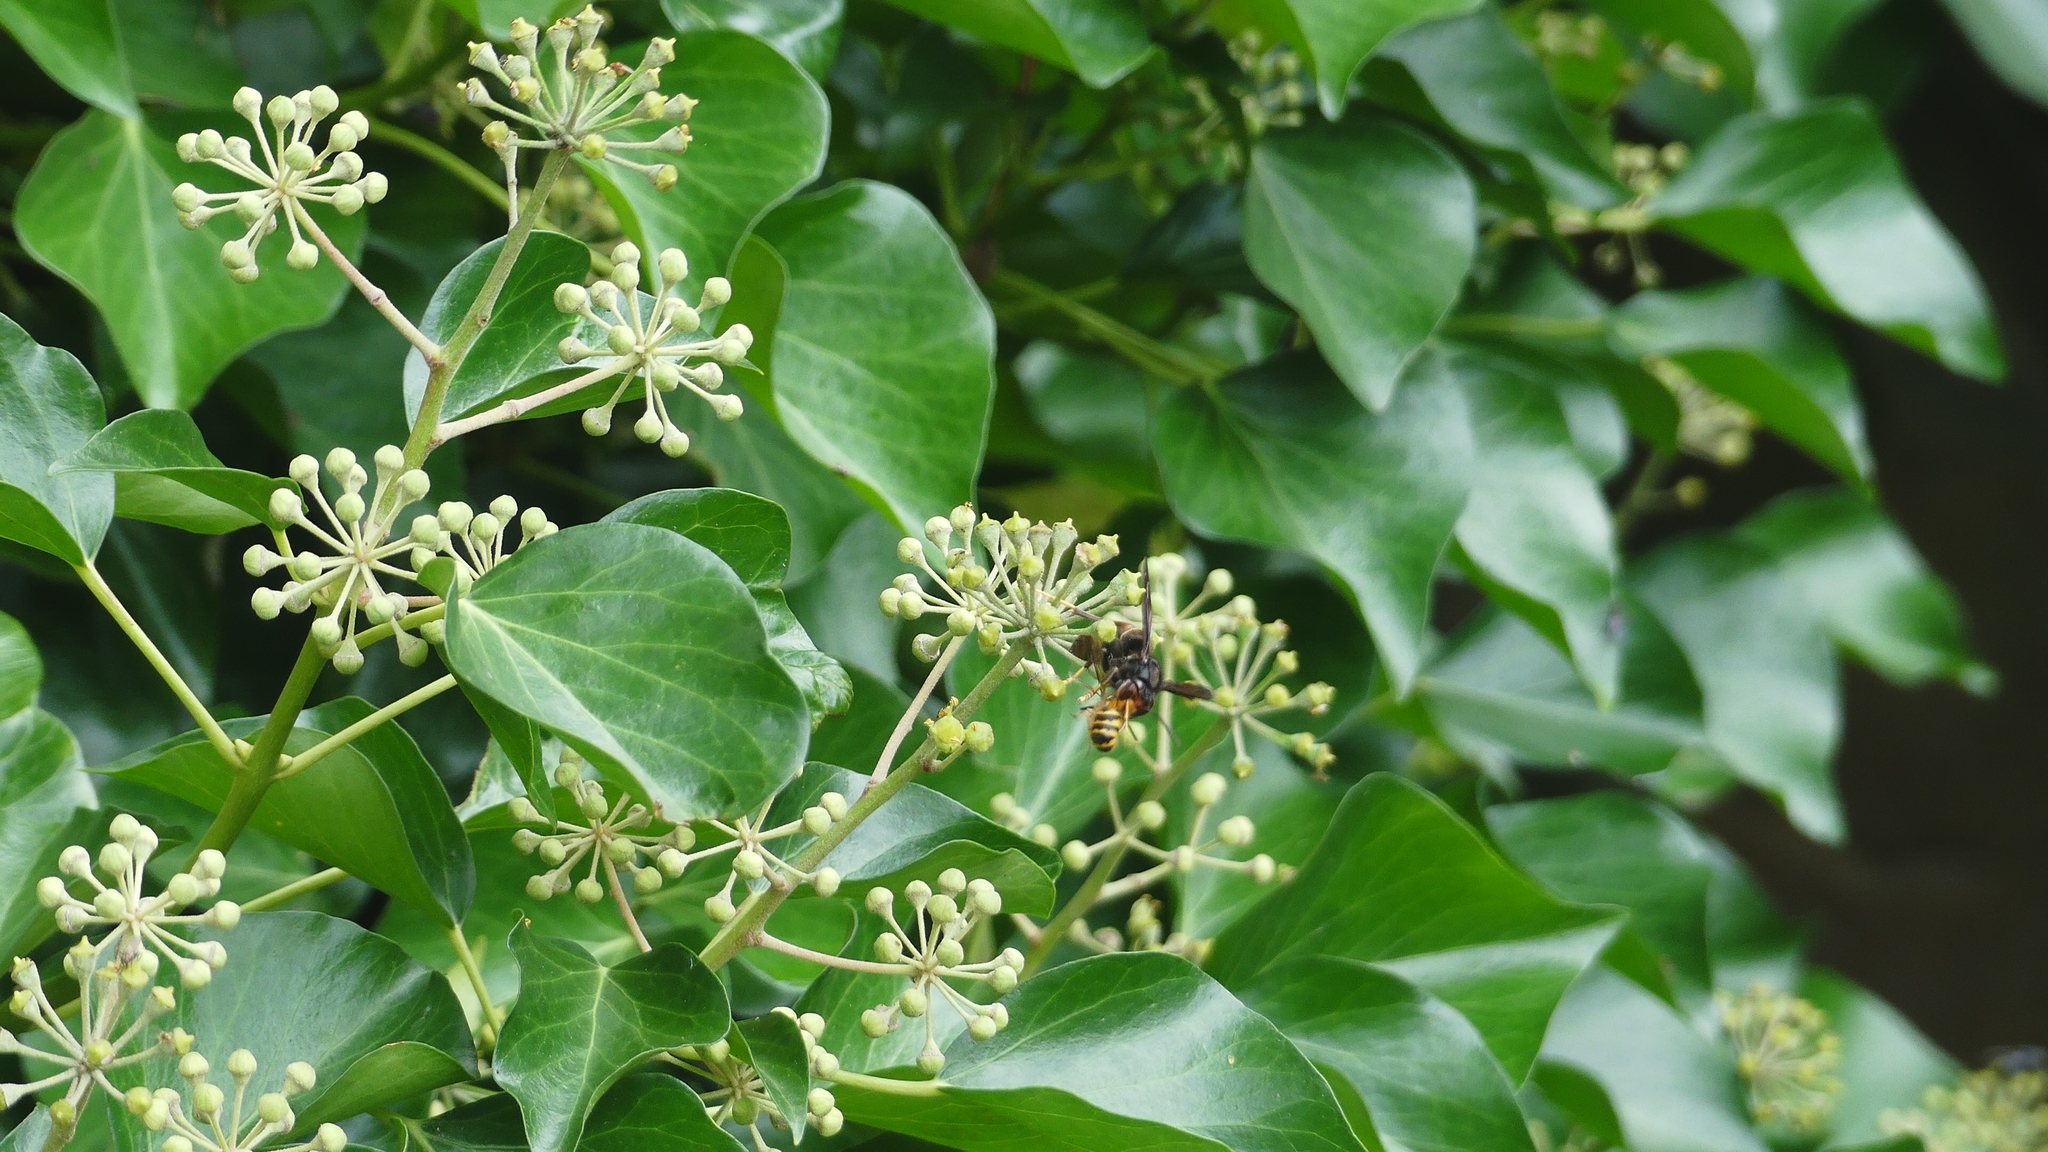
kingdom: Animalia
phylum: Arthropoda
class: Insecta
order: Hymenoptera
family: Vespidae
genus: Vespa
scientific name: Vespa velutina
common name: Asian hornet
